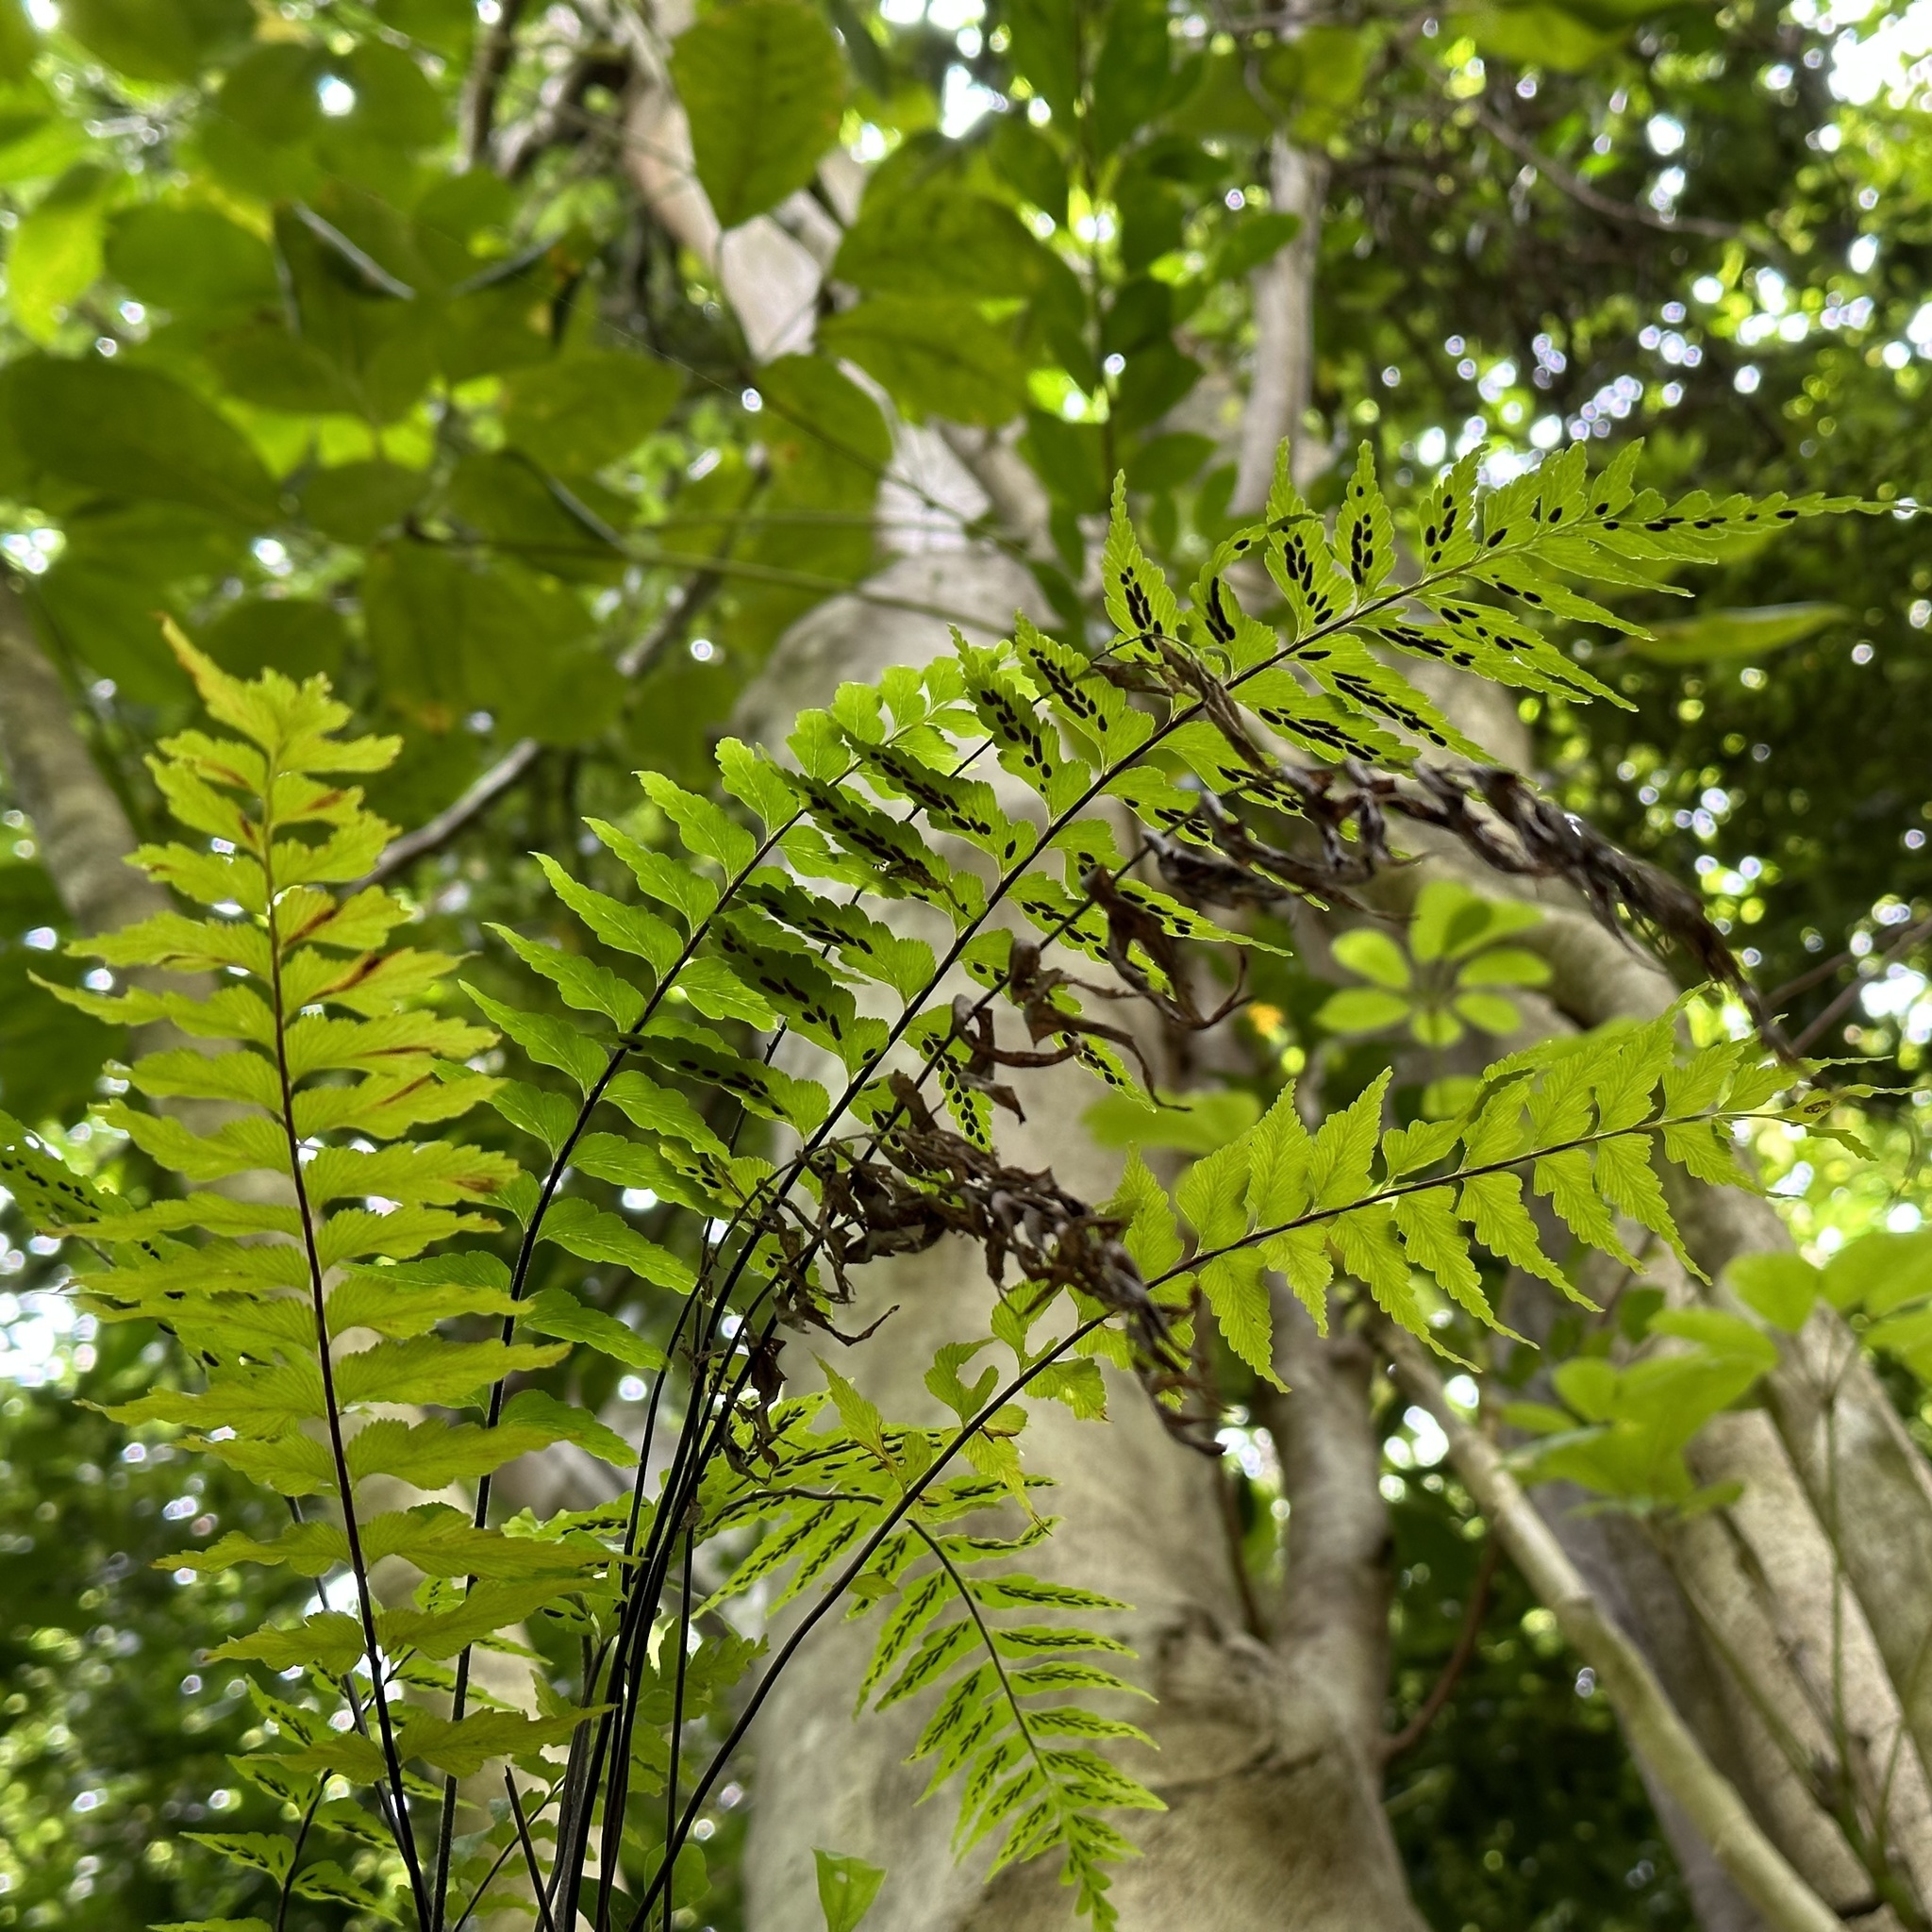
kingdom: Plantae
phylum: Tracheophyta
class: Polypodiopsida
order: Polypodiales
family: Aspleniaceae
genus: Asplenium
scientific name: Asplenium contiguum
